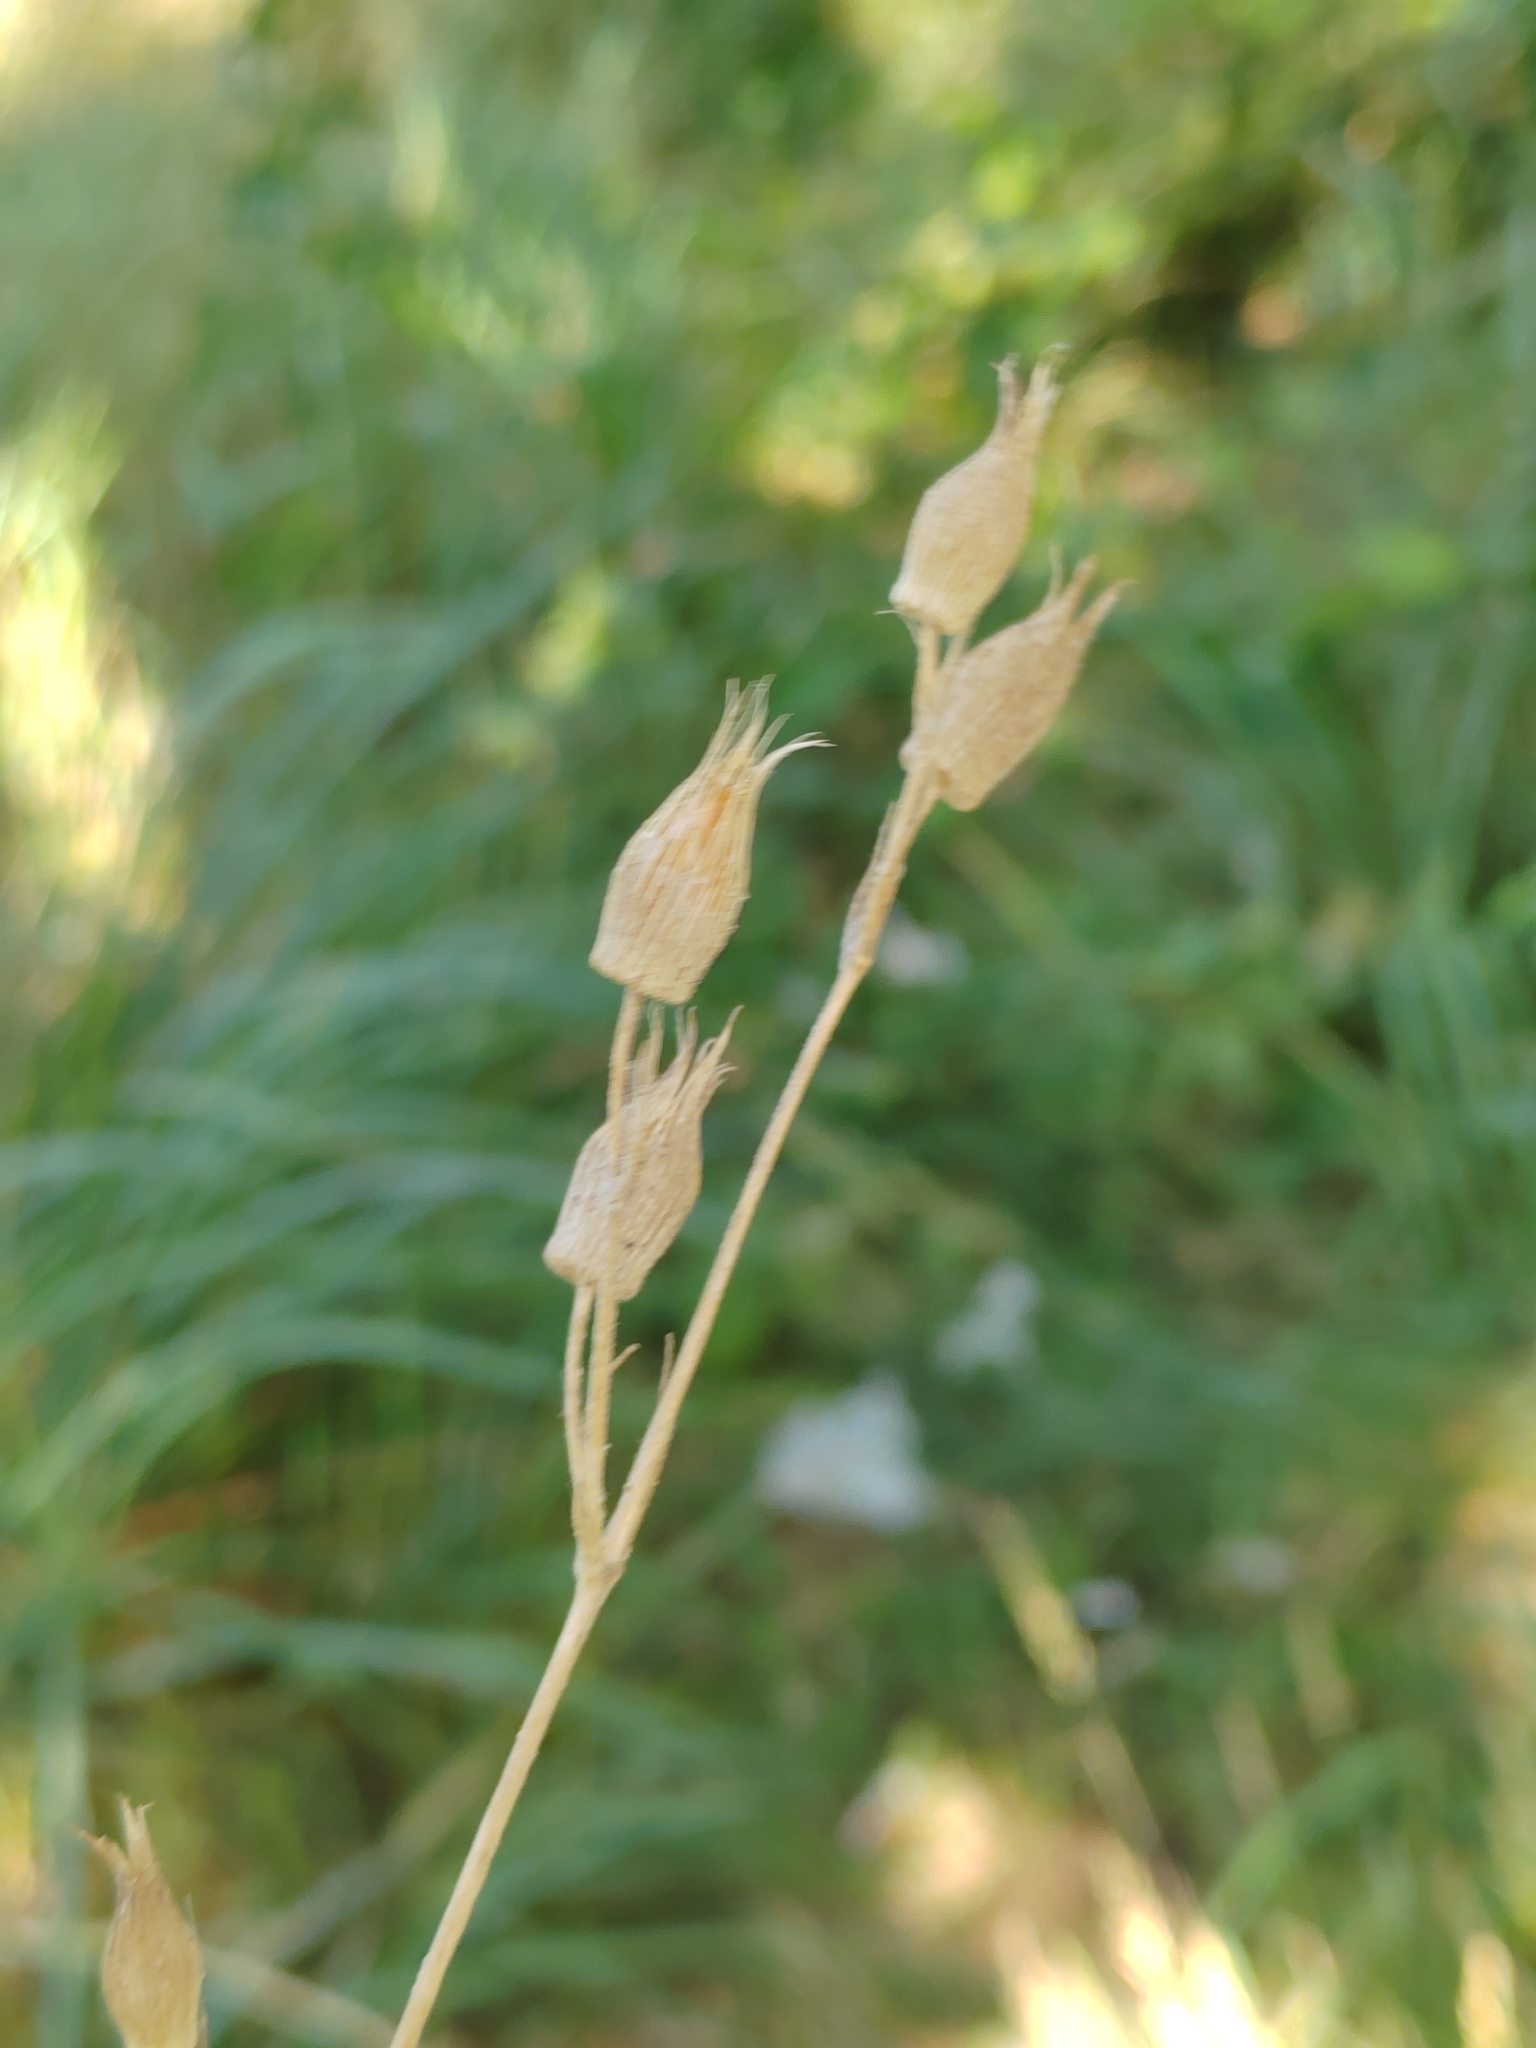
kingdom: Plantae
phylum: Tracheophyta
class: Magnoliopsida
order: Caryophyllales
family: Caryophyllaceae
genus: Silene
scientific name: Silene conica
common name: Sand catchfly
